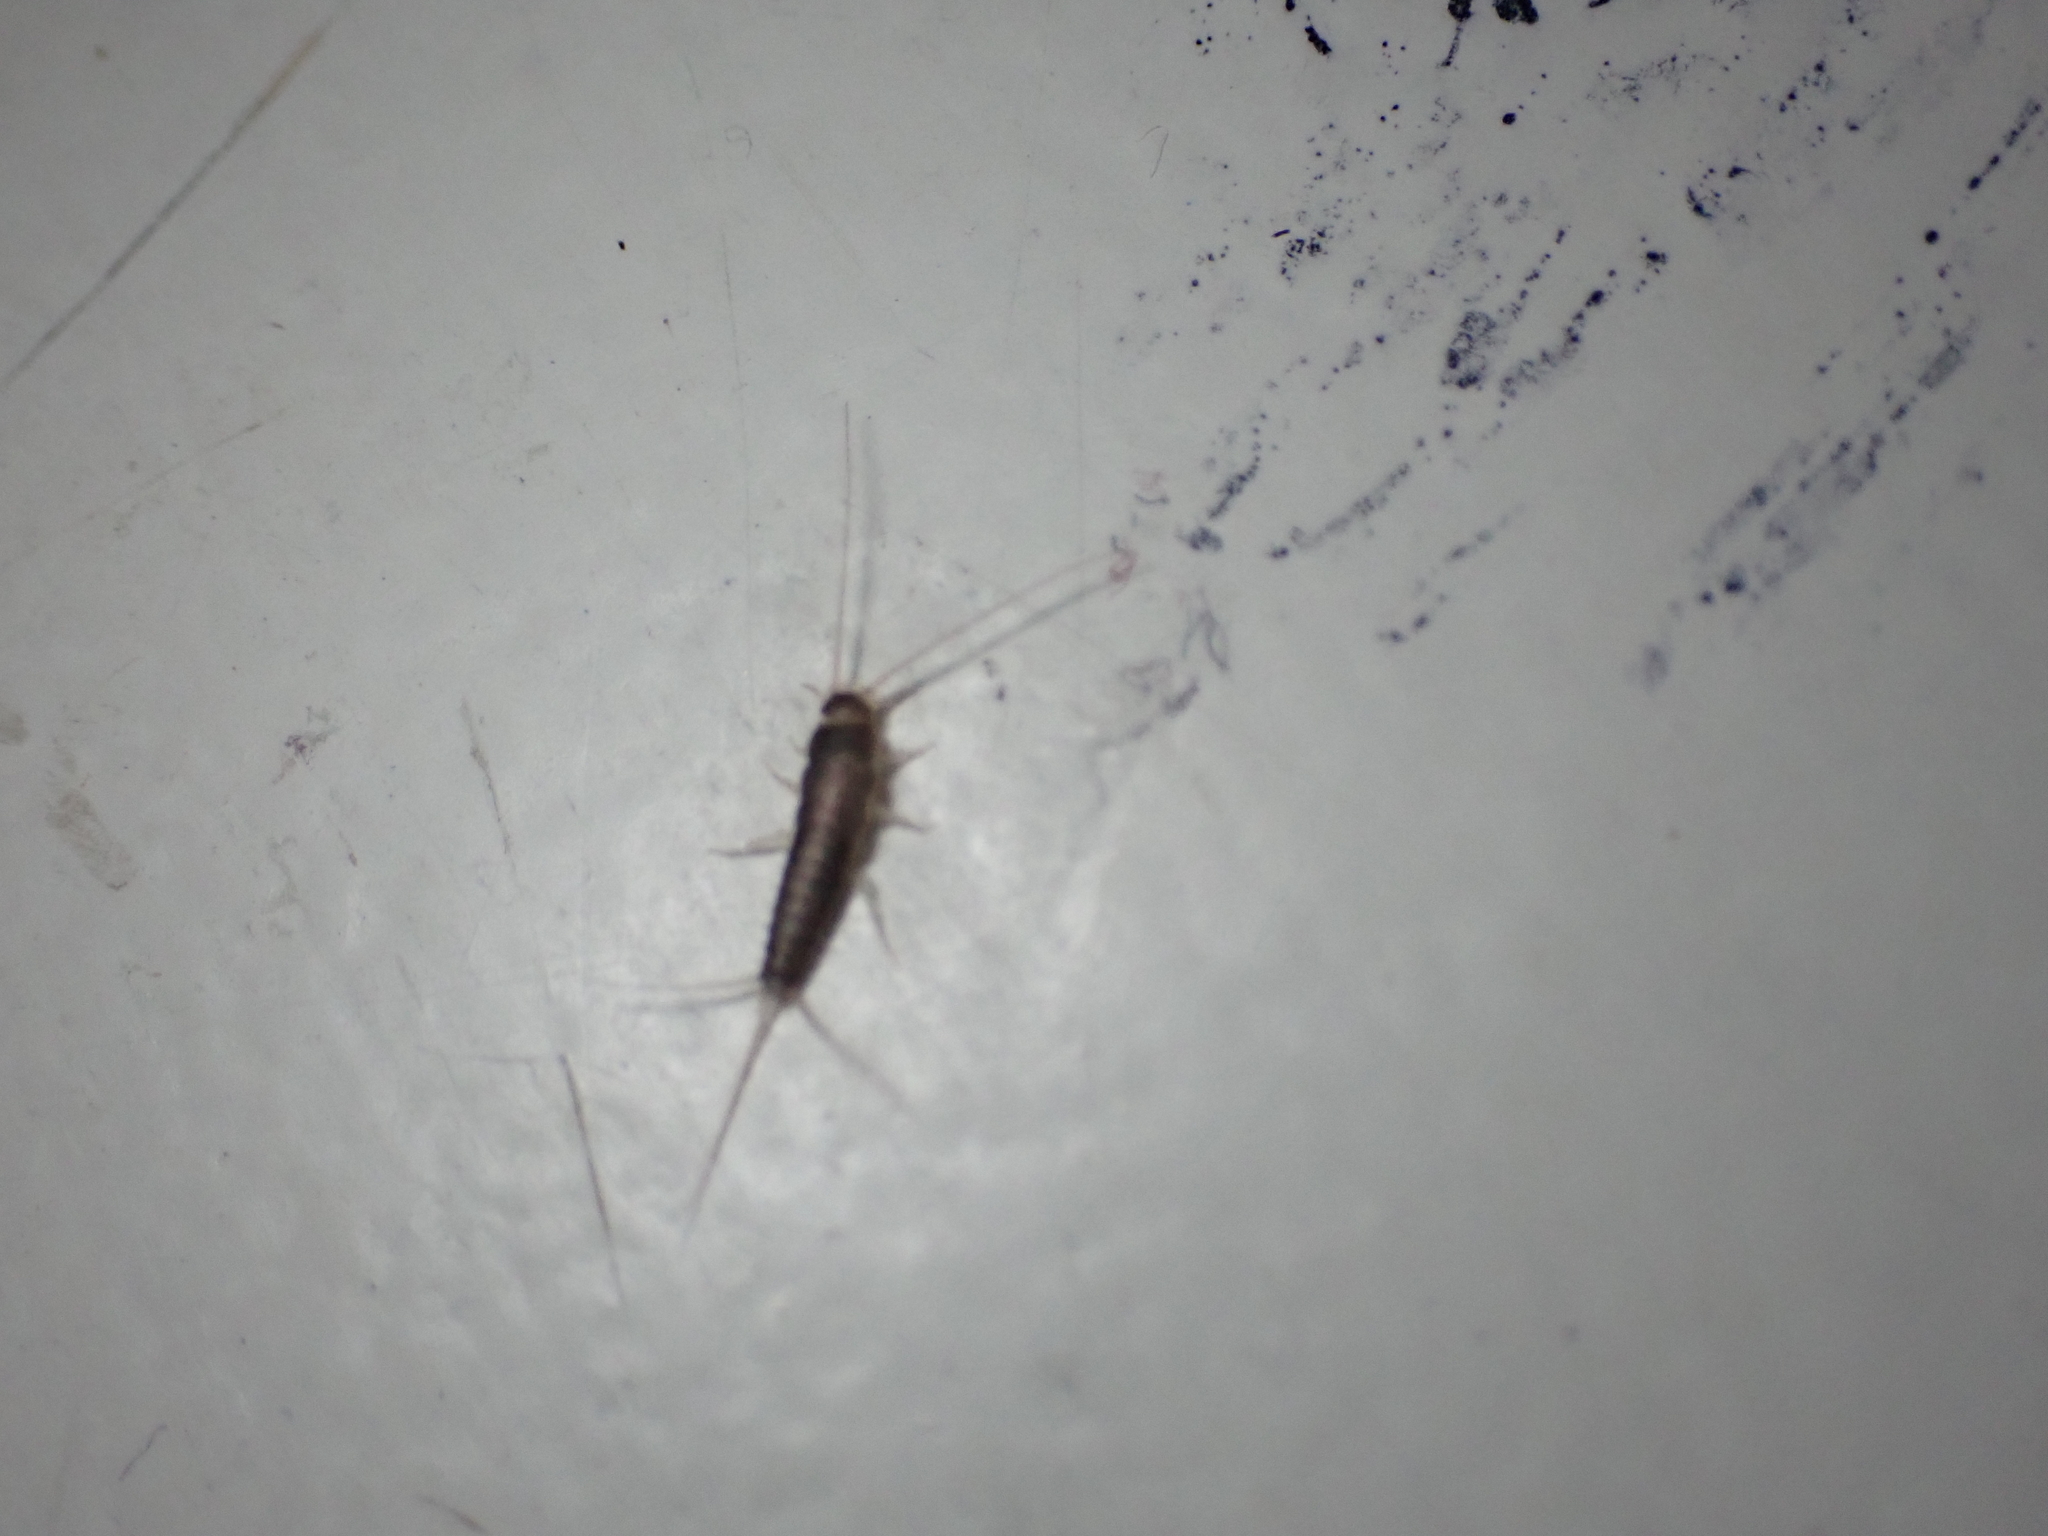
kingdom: Animalia
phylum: Arthropoda
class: Insecta
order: Zygentoma
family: Lepismatidae
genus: Ctenolepisma
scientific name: Ctenolepisma longicaudatum
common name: Silverfish
